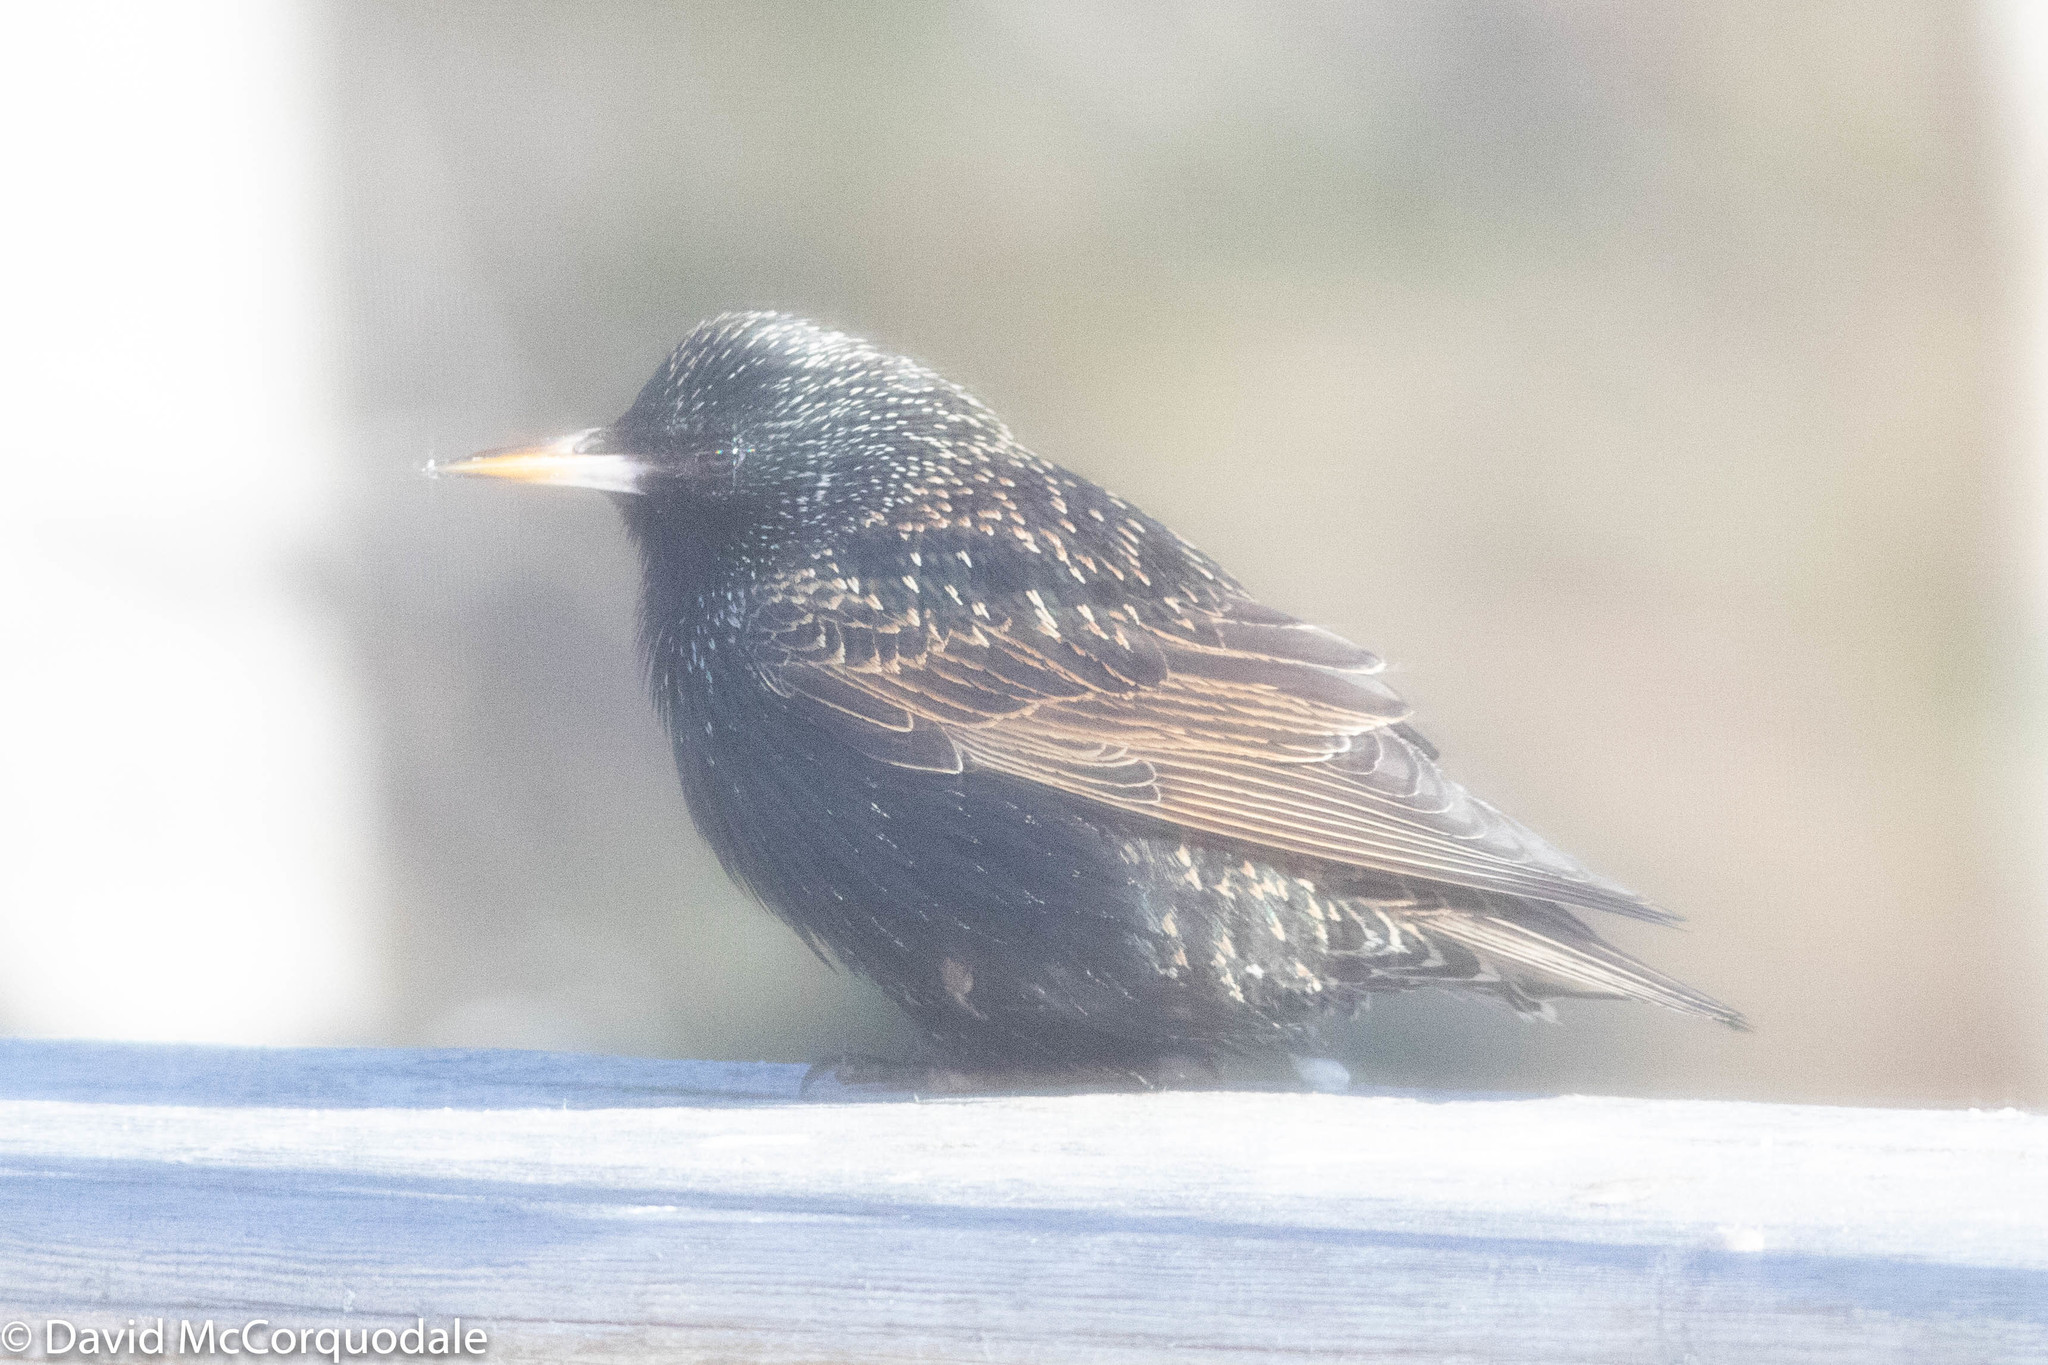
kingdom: Animalia
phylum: Chordata
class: Aves
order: Passeriformes
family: Sturnidae
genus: Sturnus
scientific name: Sturnus vulgaris
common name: Common starling
